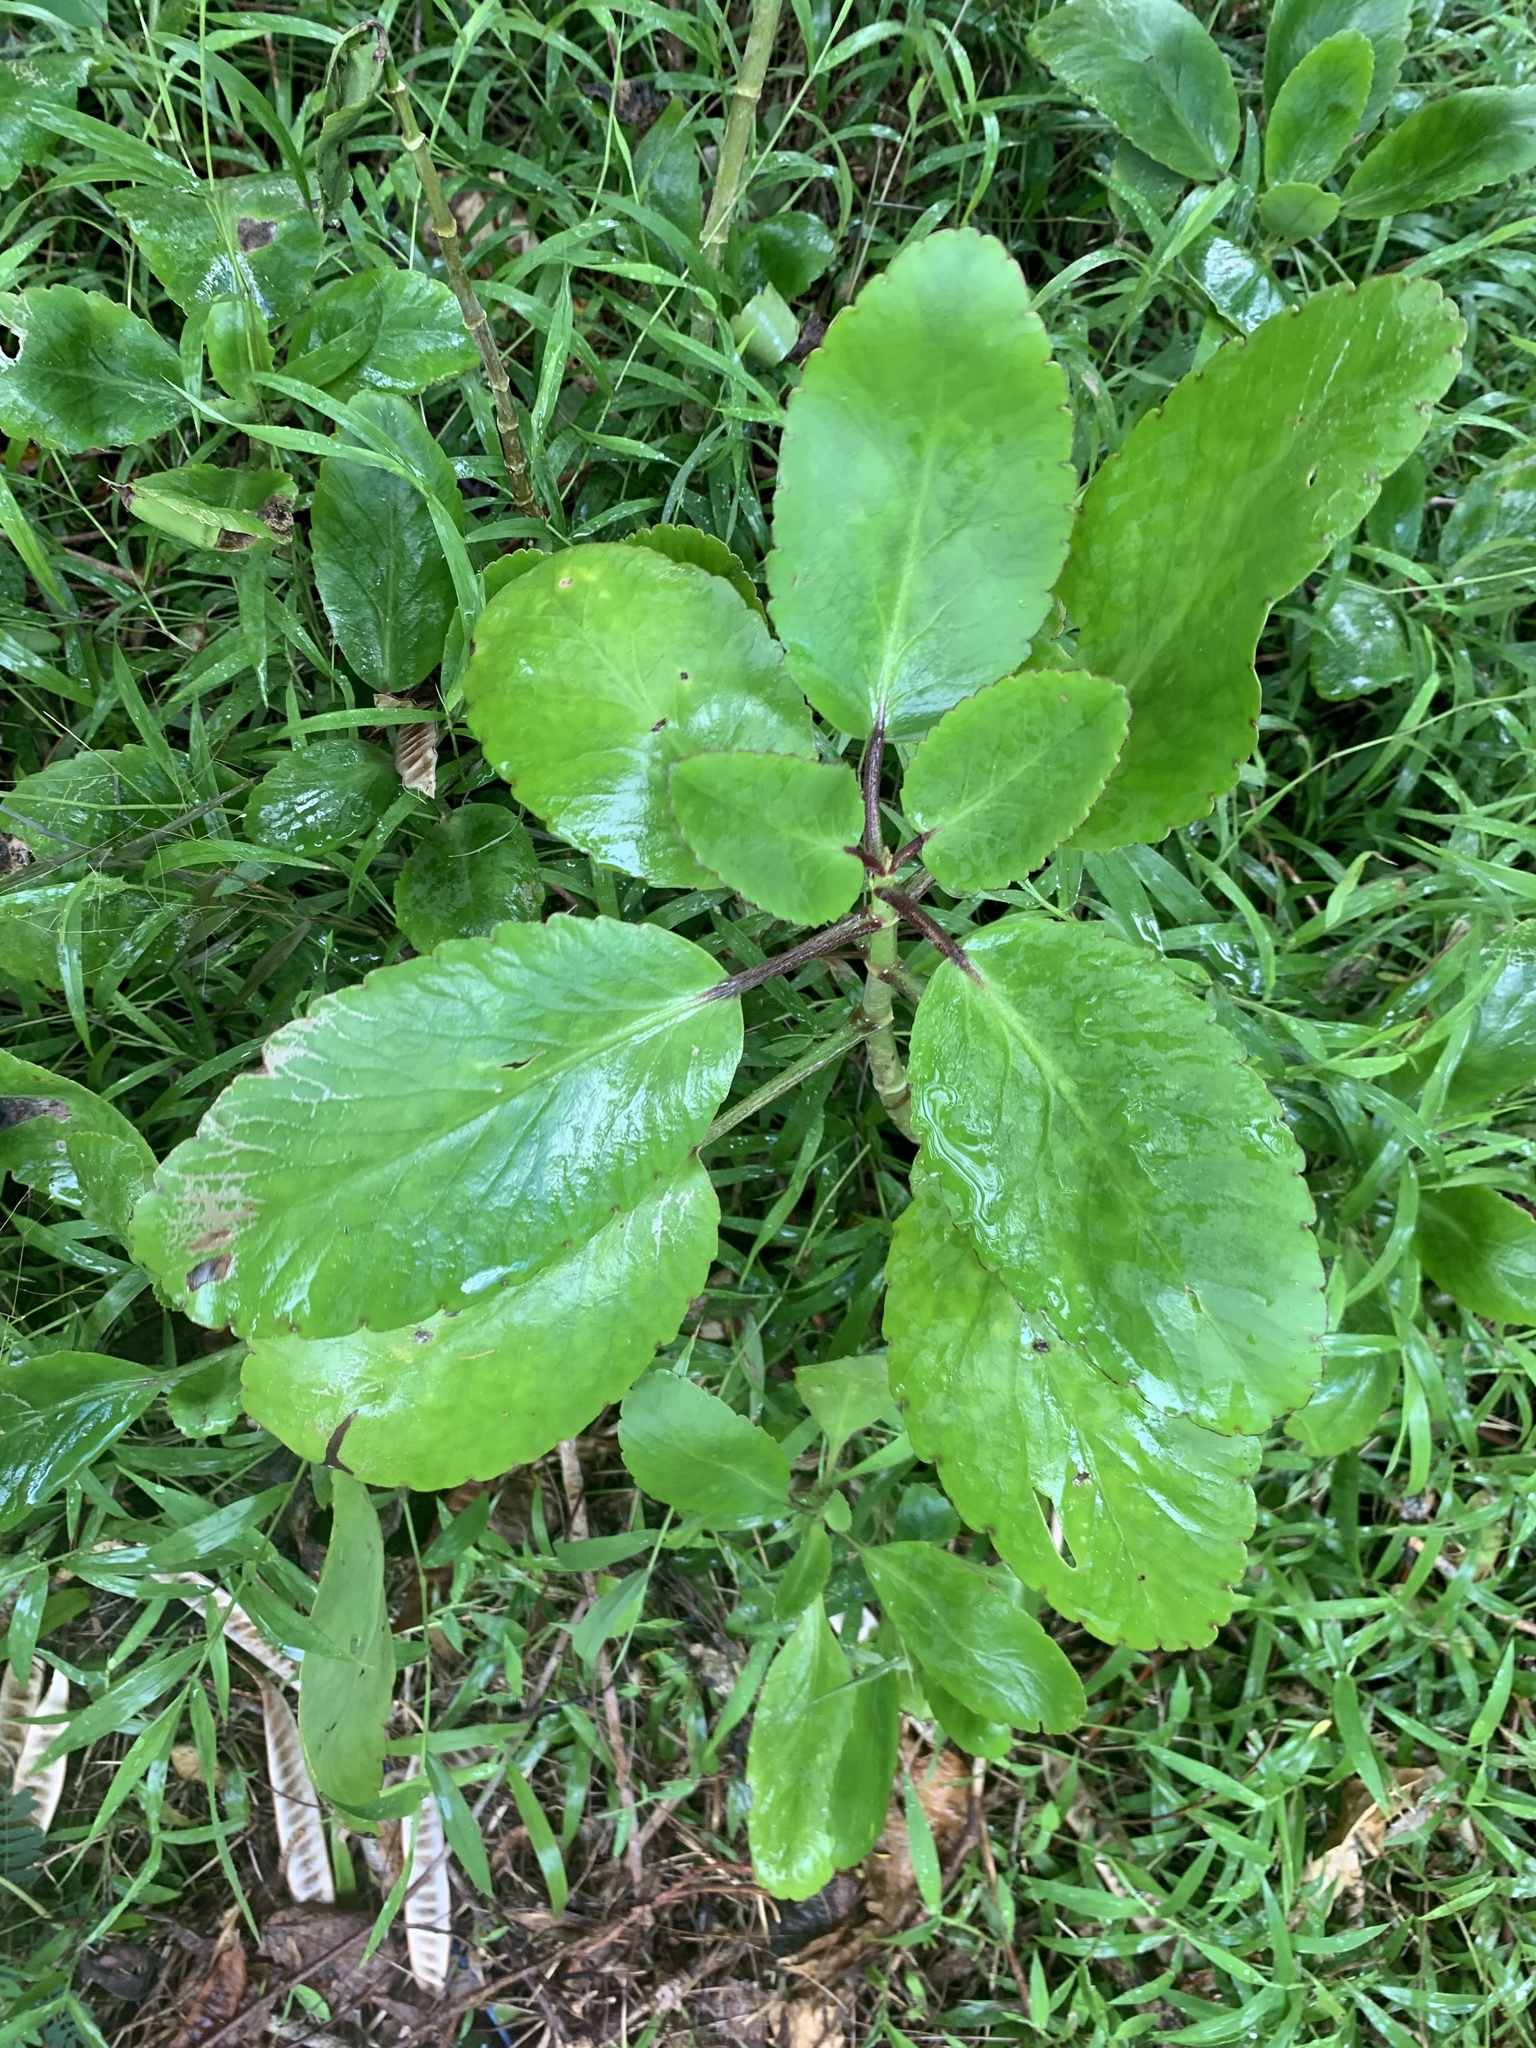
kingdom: Plantae
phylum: Tracheophyta
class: Magnoliopsida
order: Saxifragales
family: Crassulaceae
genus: Kalanchoe
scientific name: Kalanchoe pinnata
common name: Cathedral bells
